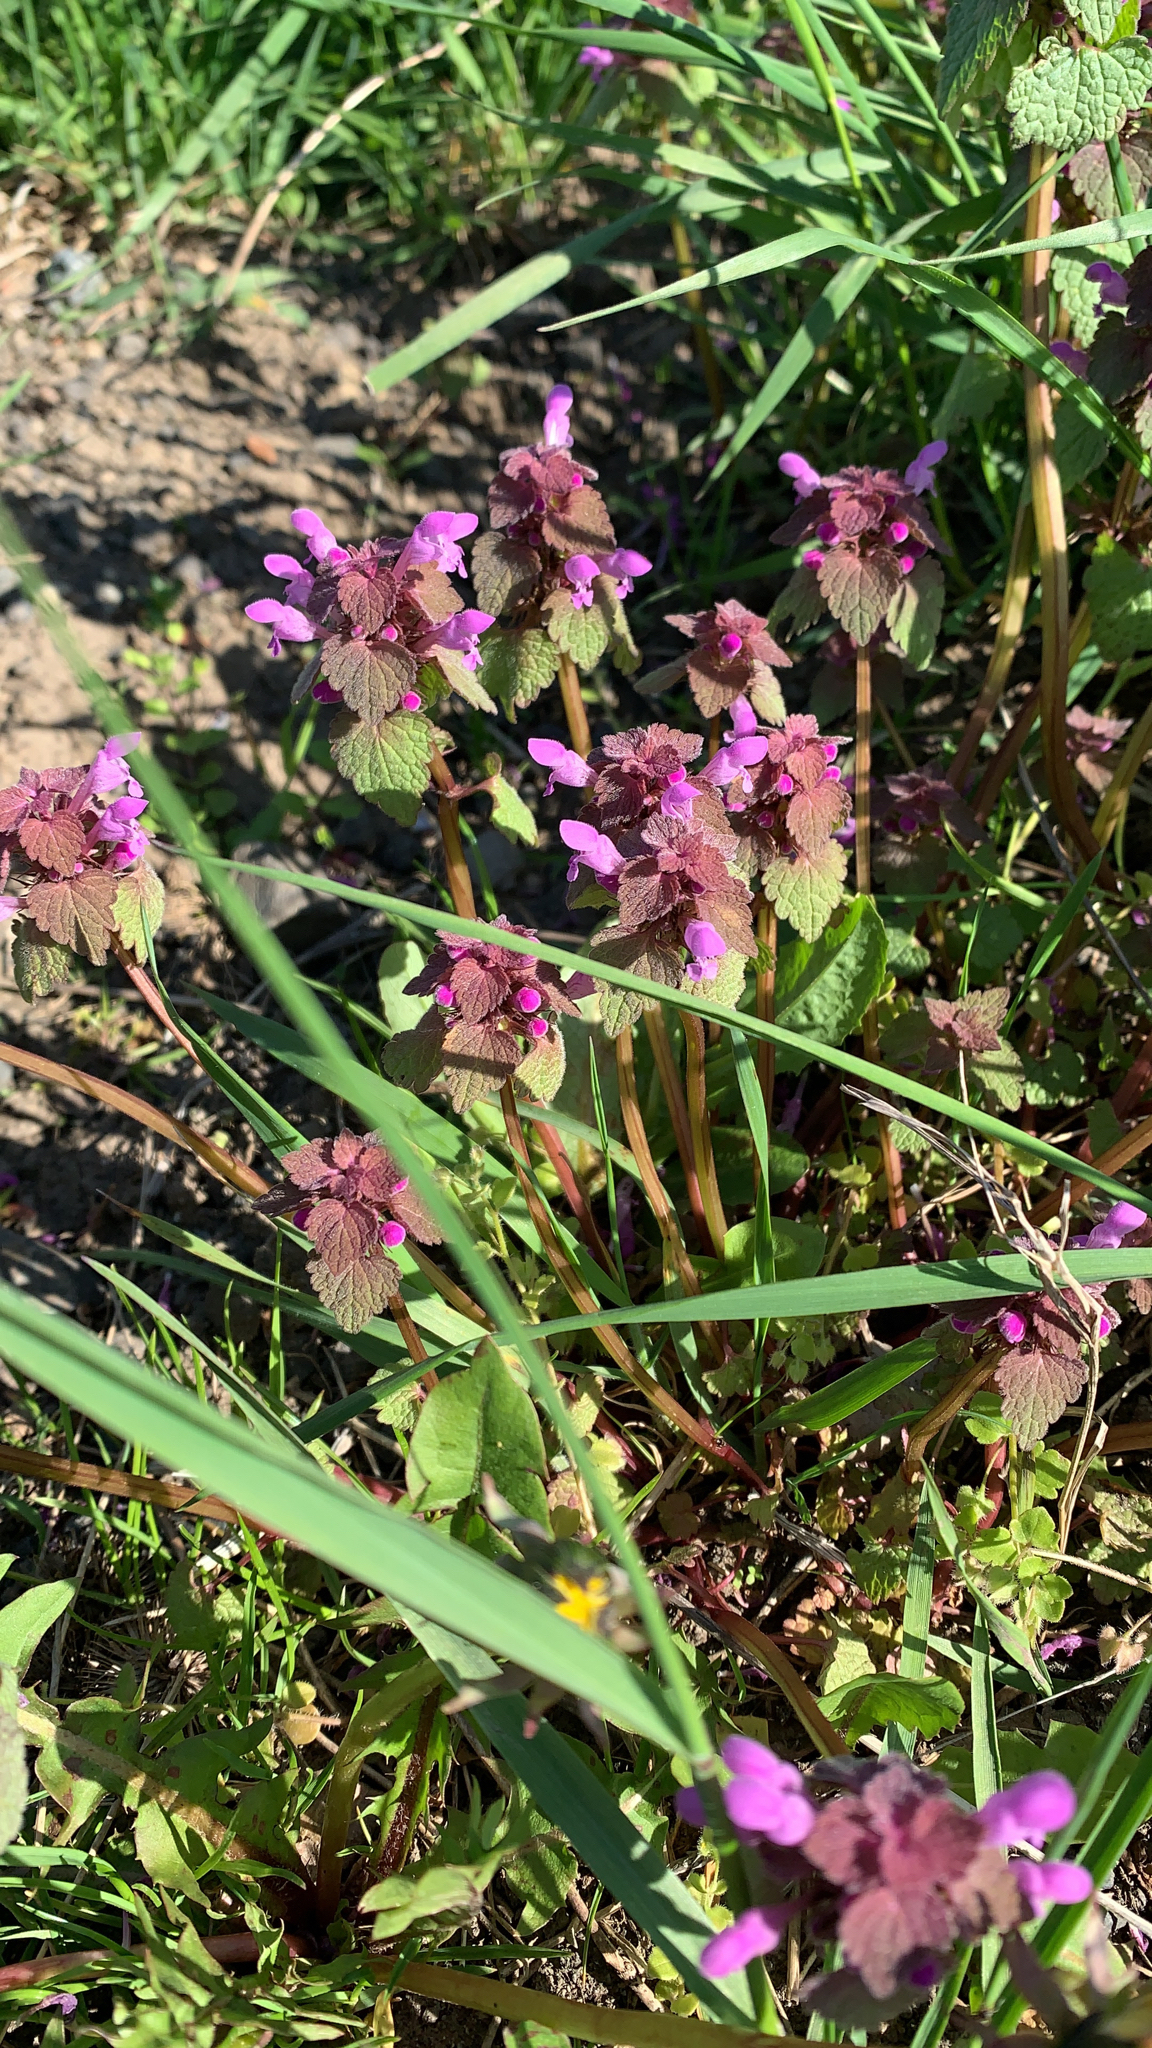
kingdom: Plantae
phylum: Tracheophyta
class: Magnoliopsida
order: Lamiales
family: Lamiaceae
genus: Lamium
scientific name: Lamium purpureum
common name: Red dead-nettle
